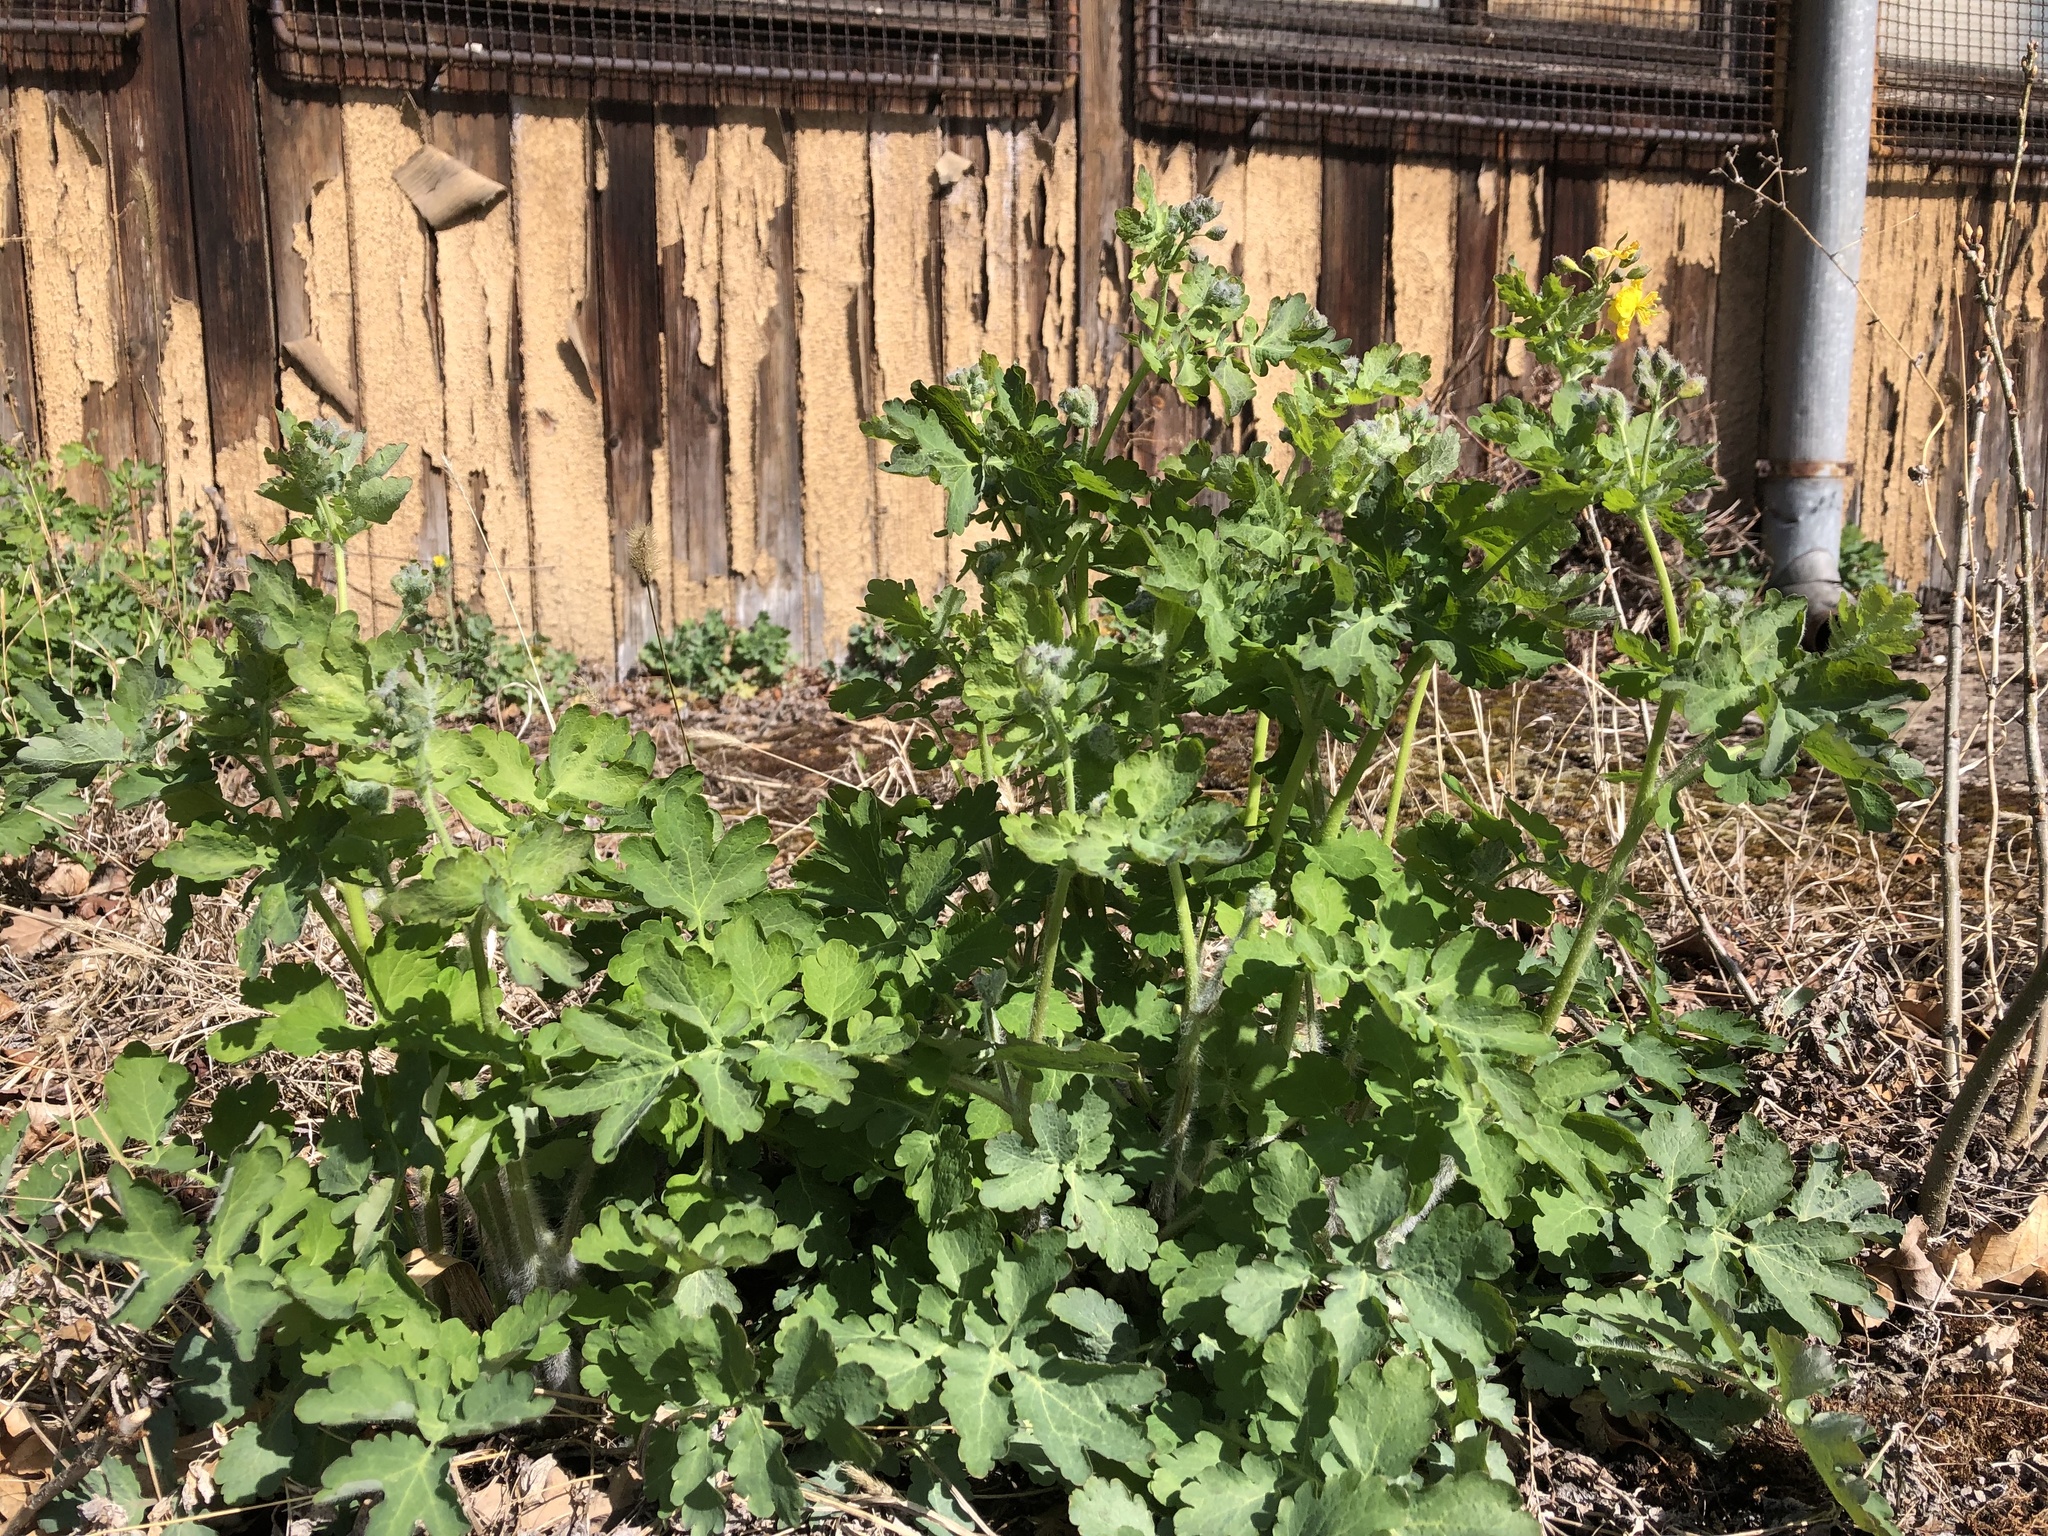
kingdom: Plantae
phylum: Tracheophyta
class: Magnoliopsida
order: Ranunculales
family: Papaveraceae
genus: Chelidonium
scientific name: Chelidonium majus
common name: Greater celandine
